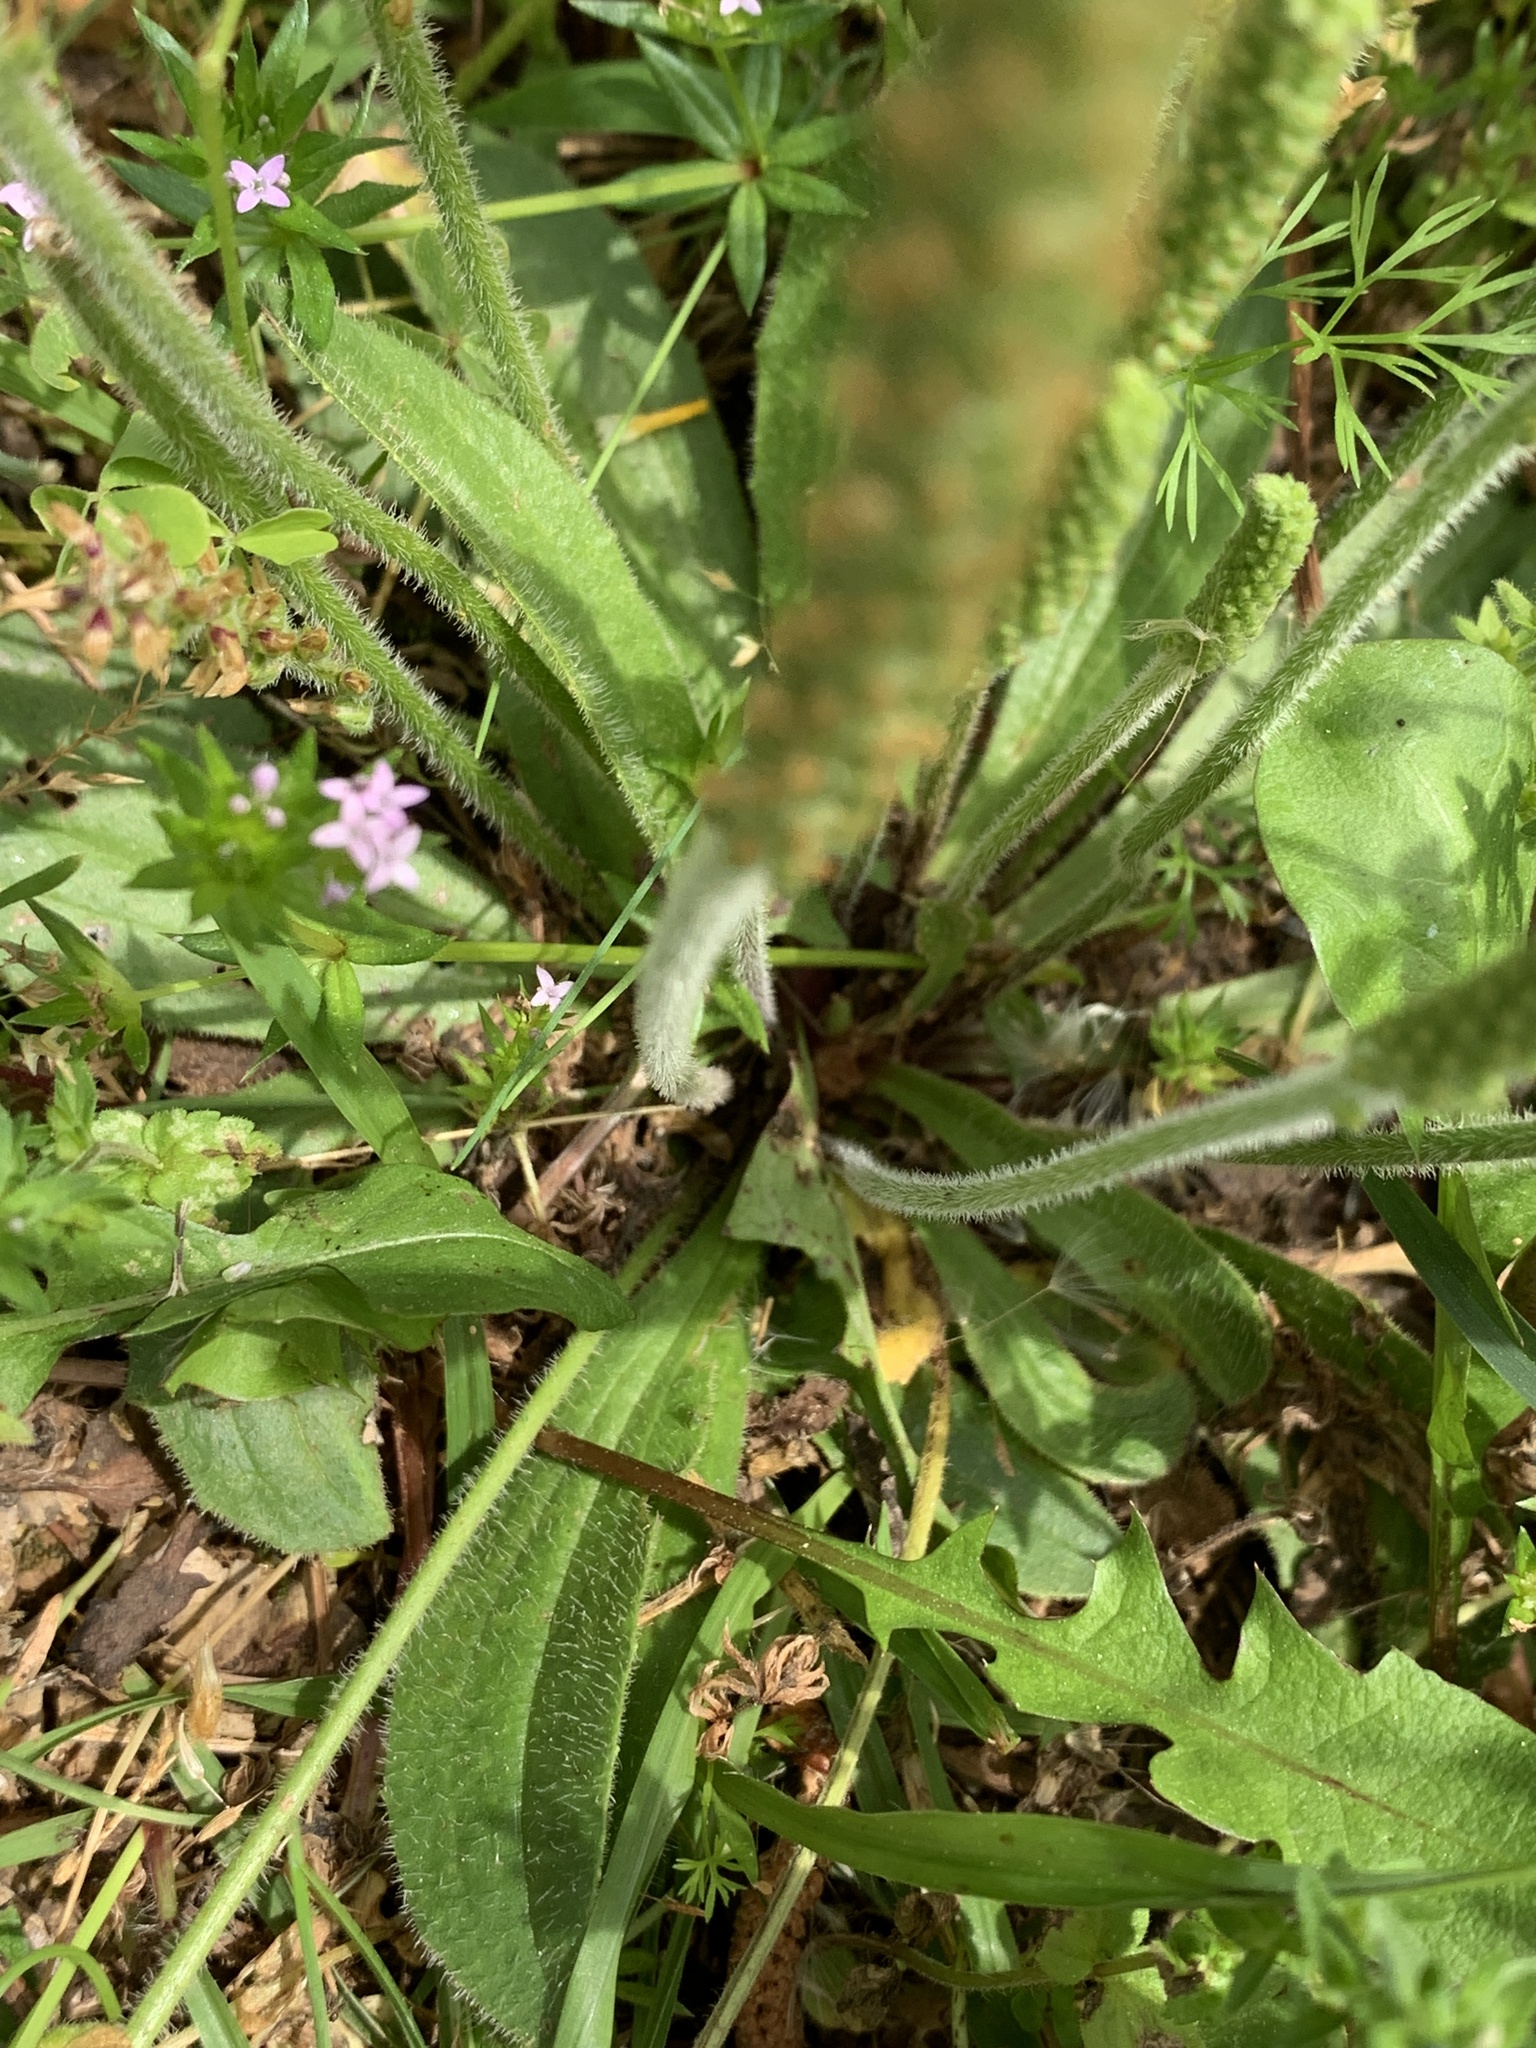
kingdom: Plantae
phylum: Tracheophyta
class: Magnoliopsida
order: Lamiales
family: Plantaginaceae
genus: Plantago
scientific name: Plantago virginica
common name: Hoary plantain
